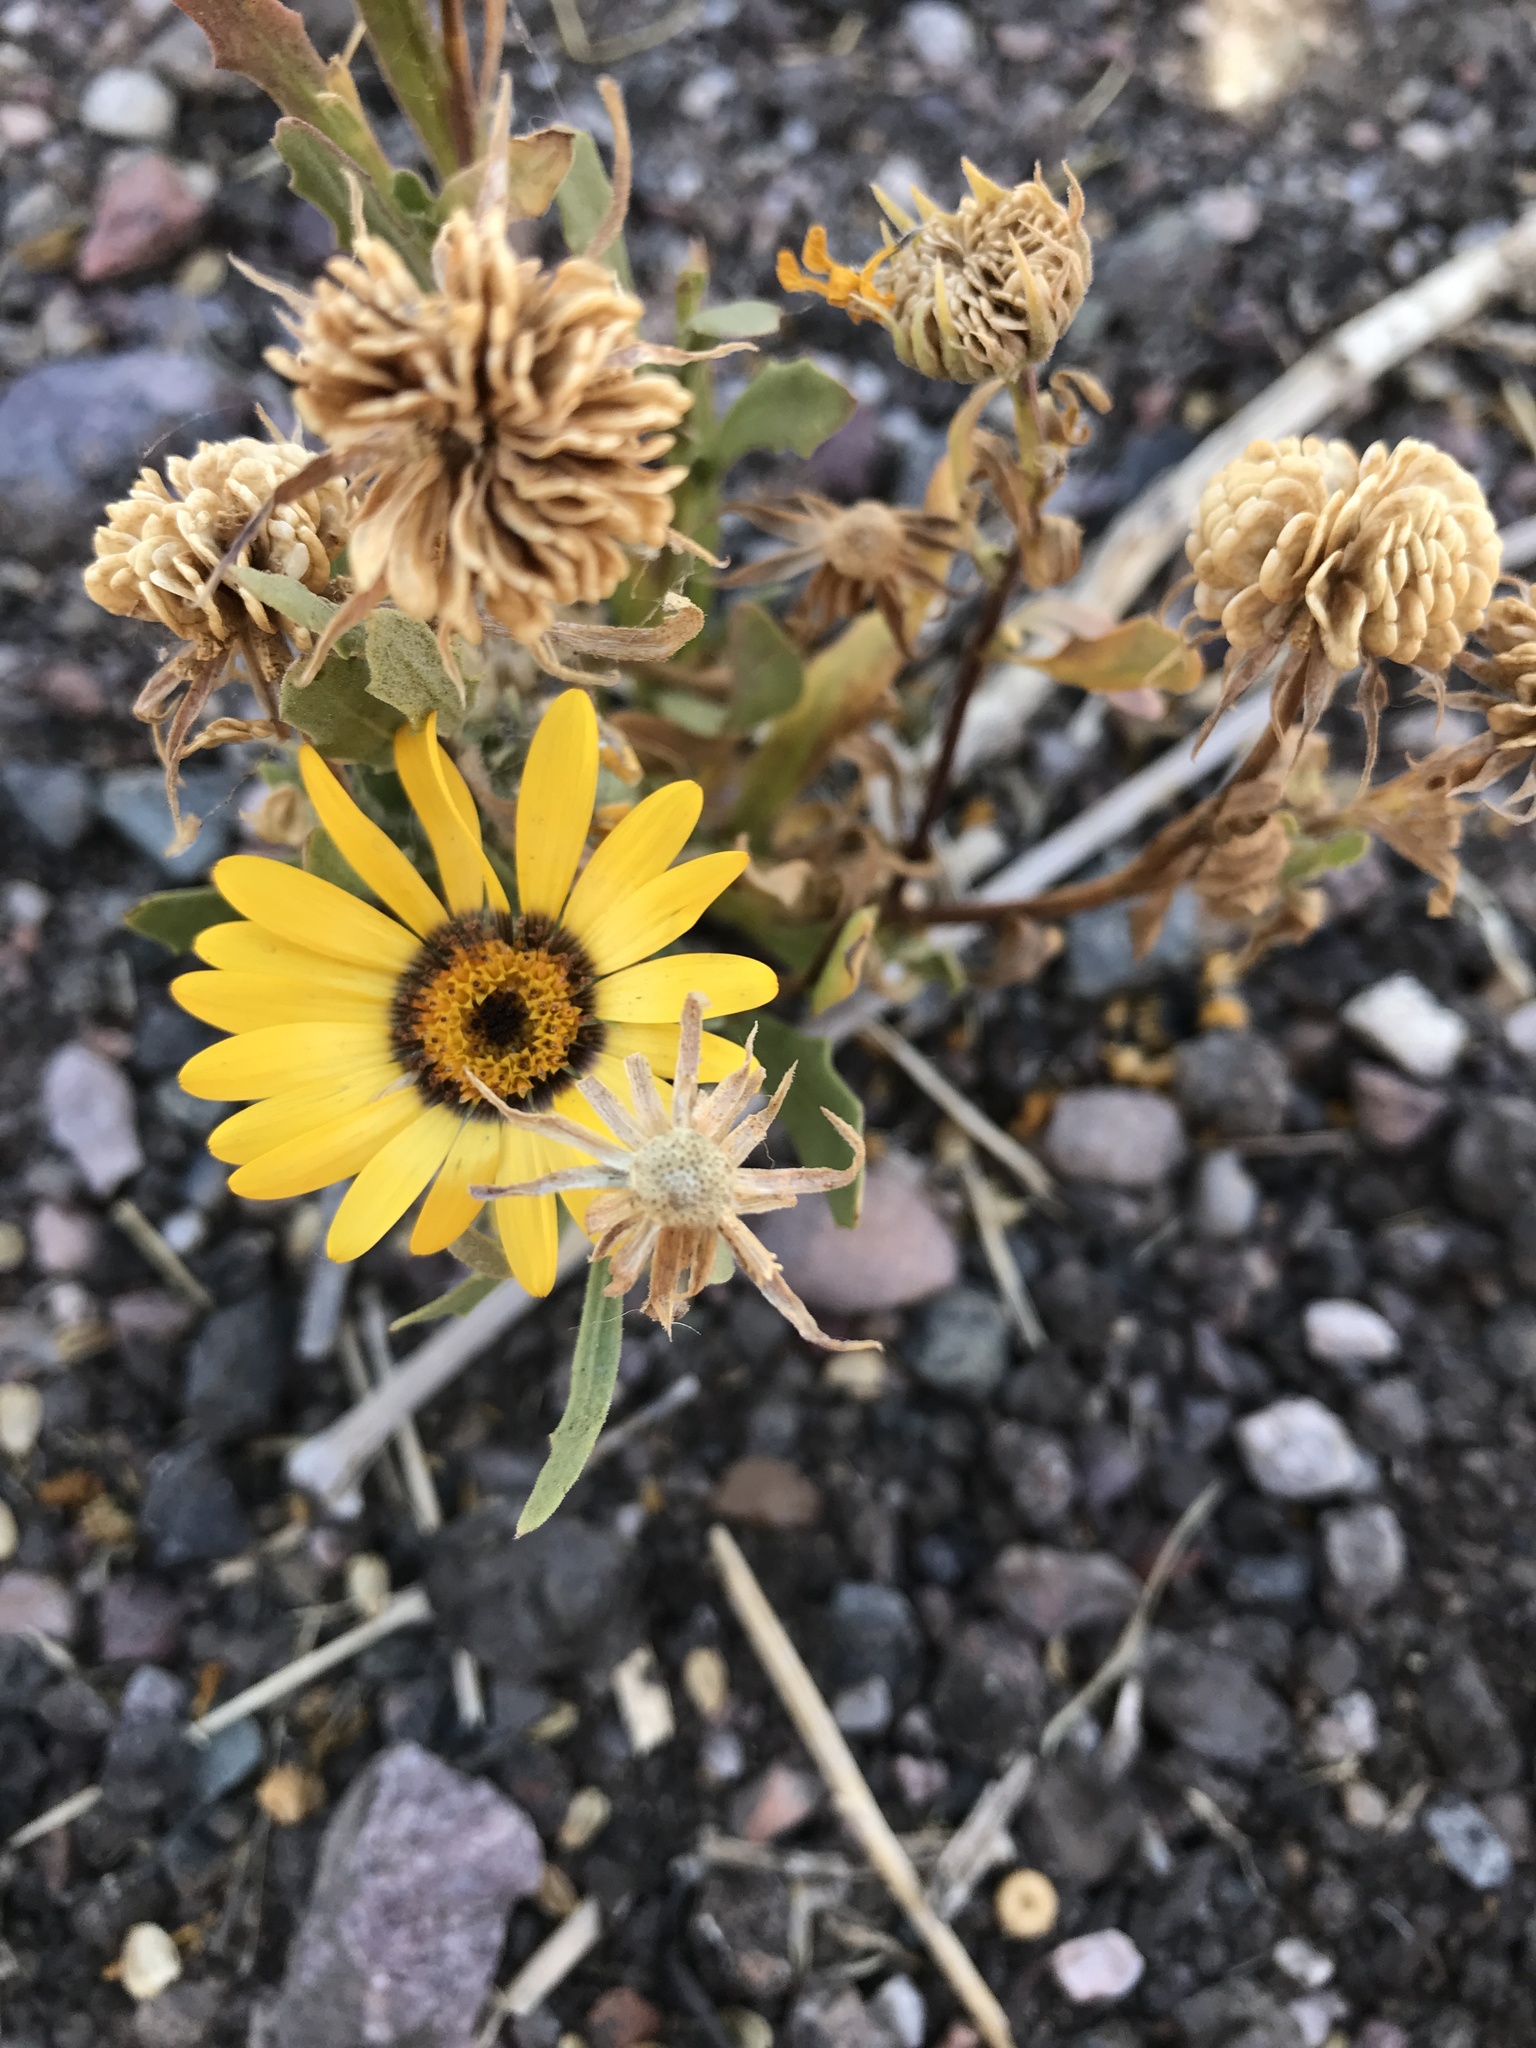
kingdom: Plantae
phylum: Tracheophyta
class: Magnoliopsida
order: Asterales
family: Asteraceae
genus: Dimorphotheca
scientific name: Dimorphotheca sinuata
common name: Glandular cape marigold
